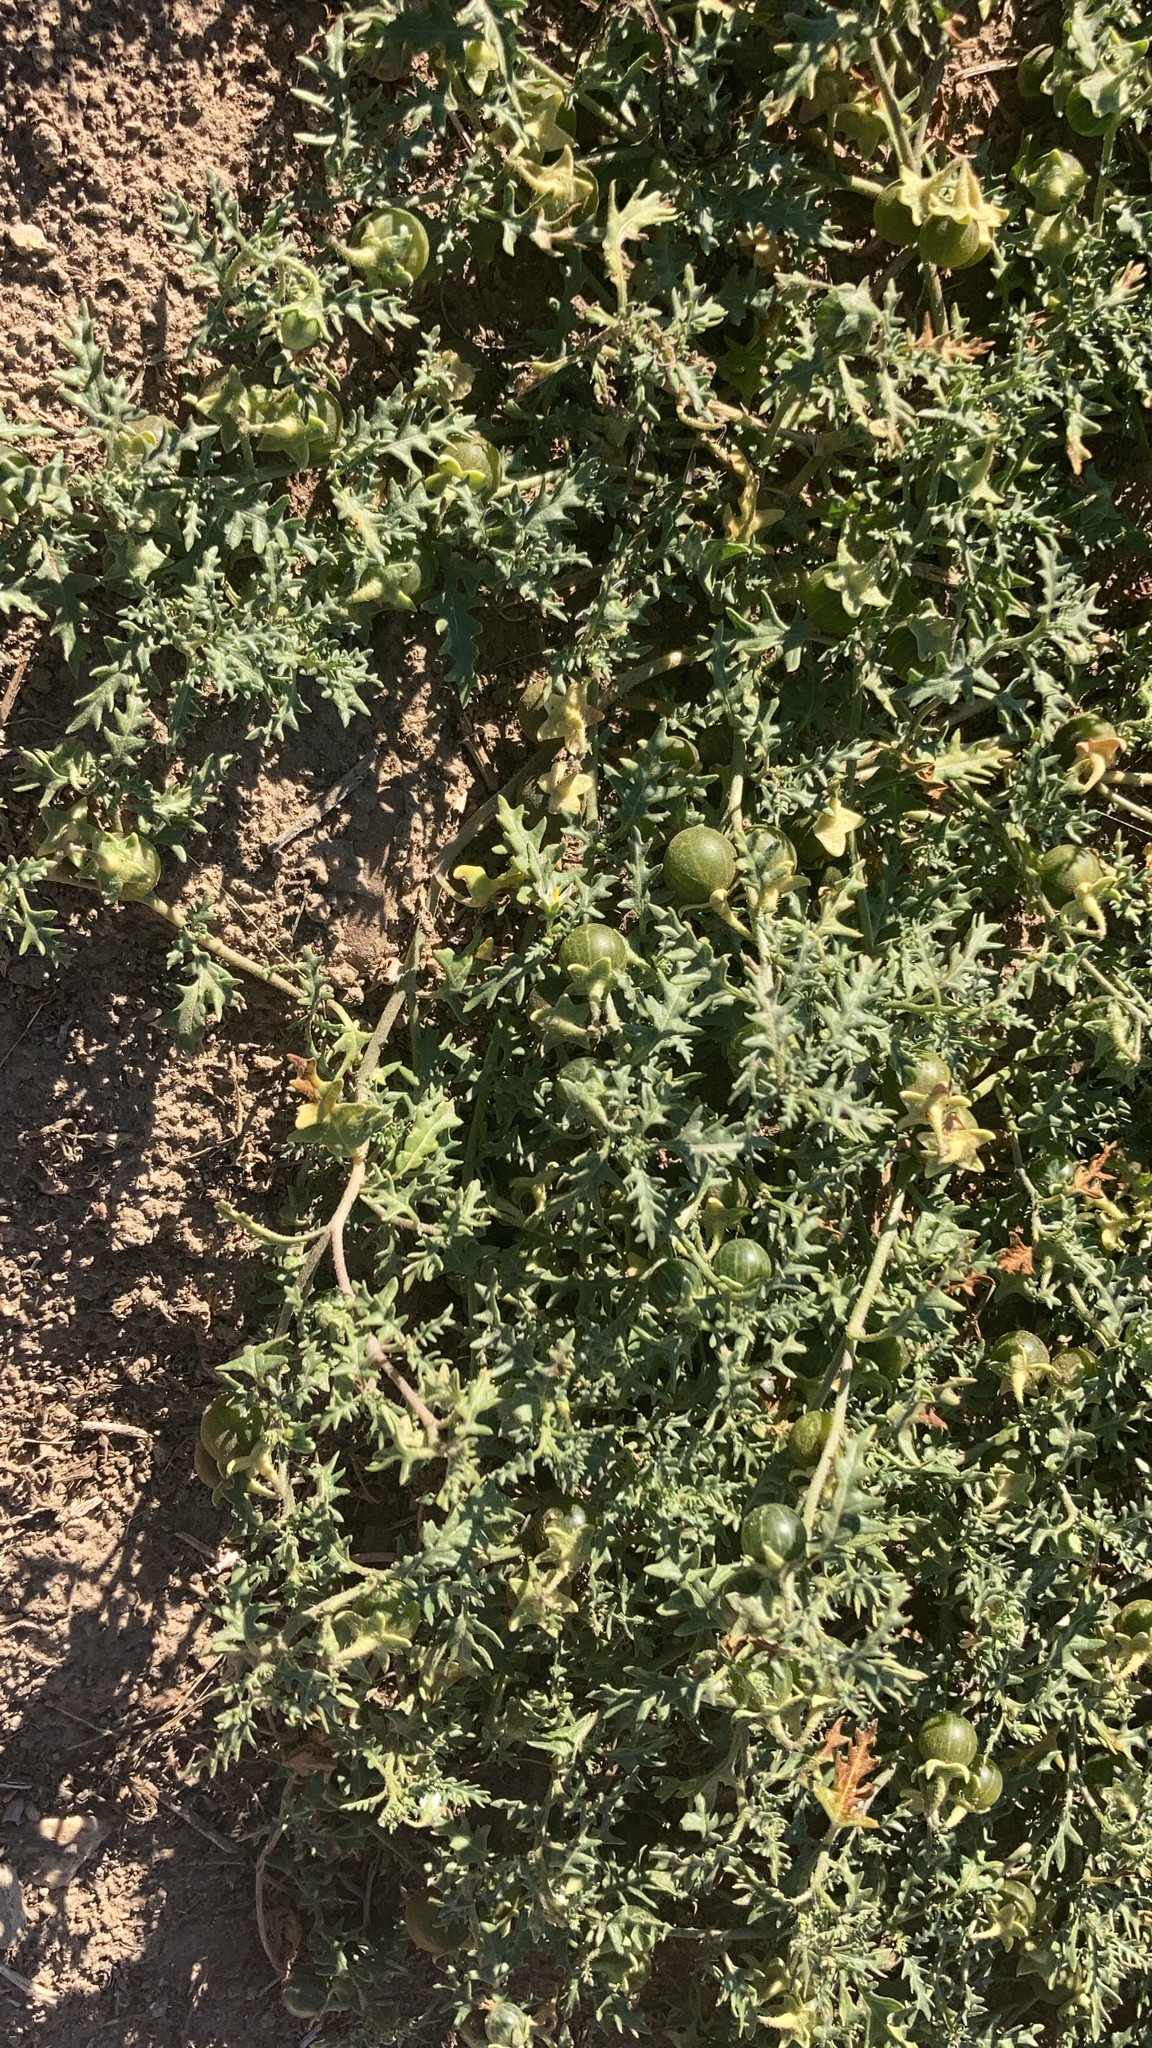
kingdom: Plantae
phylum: Tracheophyta
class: Magnoliopsida
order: Solanales
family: Solanaceae
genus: Solanum
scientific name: Solanum triflorum
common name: Small nightshade
